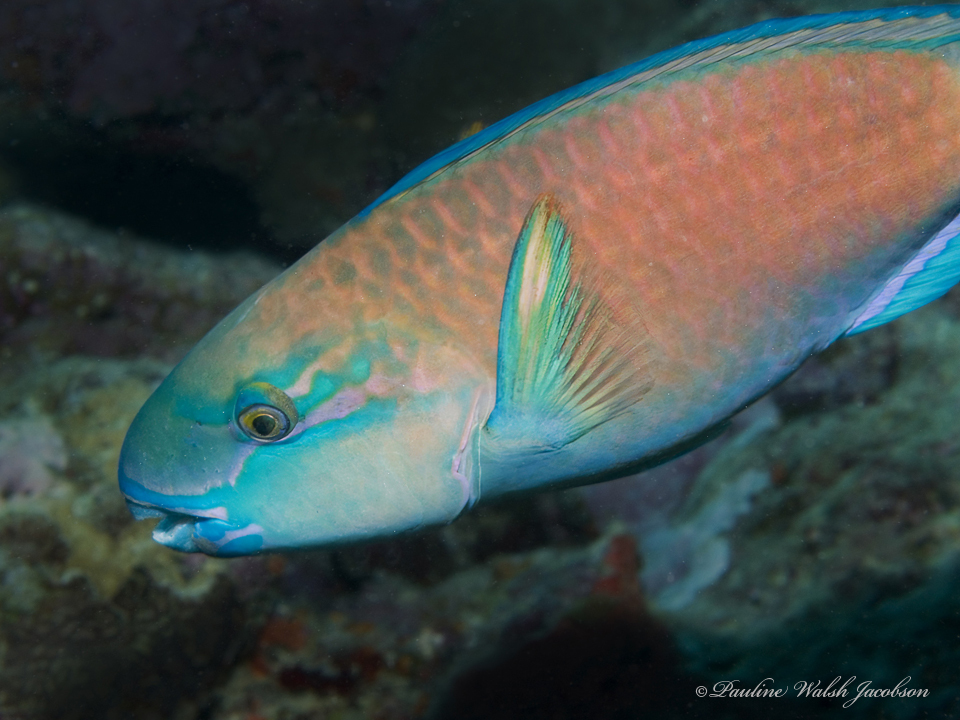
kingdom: Animalia
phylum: Chordata
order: Perciformes
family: Scaridae
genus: Chlorurus
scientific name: Chlorurus spilurus
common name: Bullethead parrotfish
